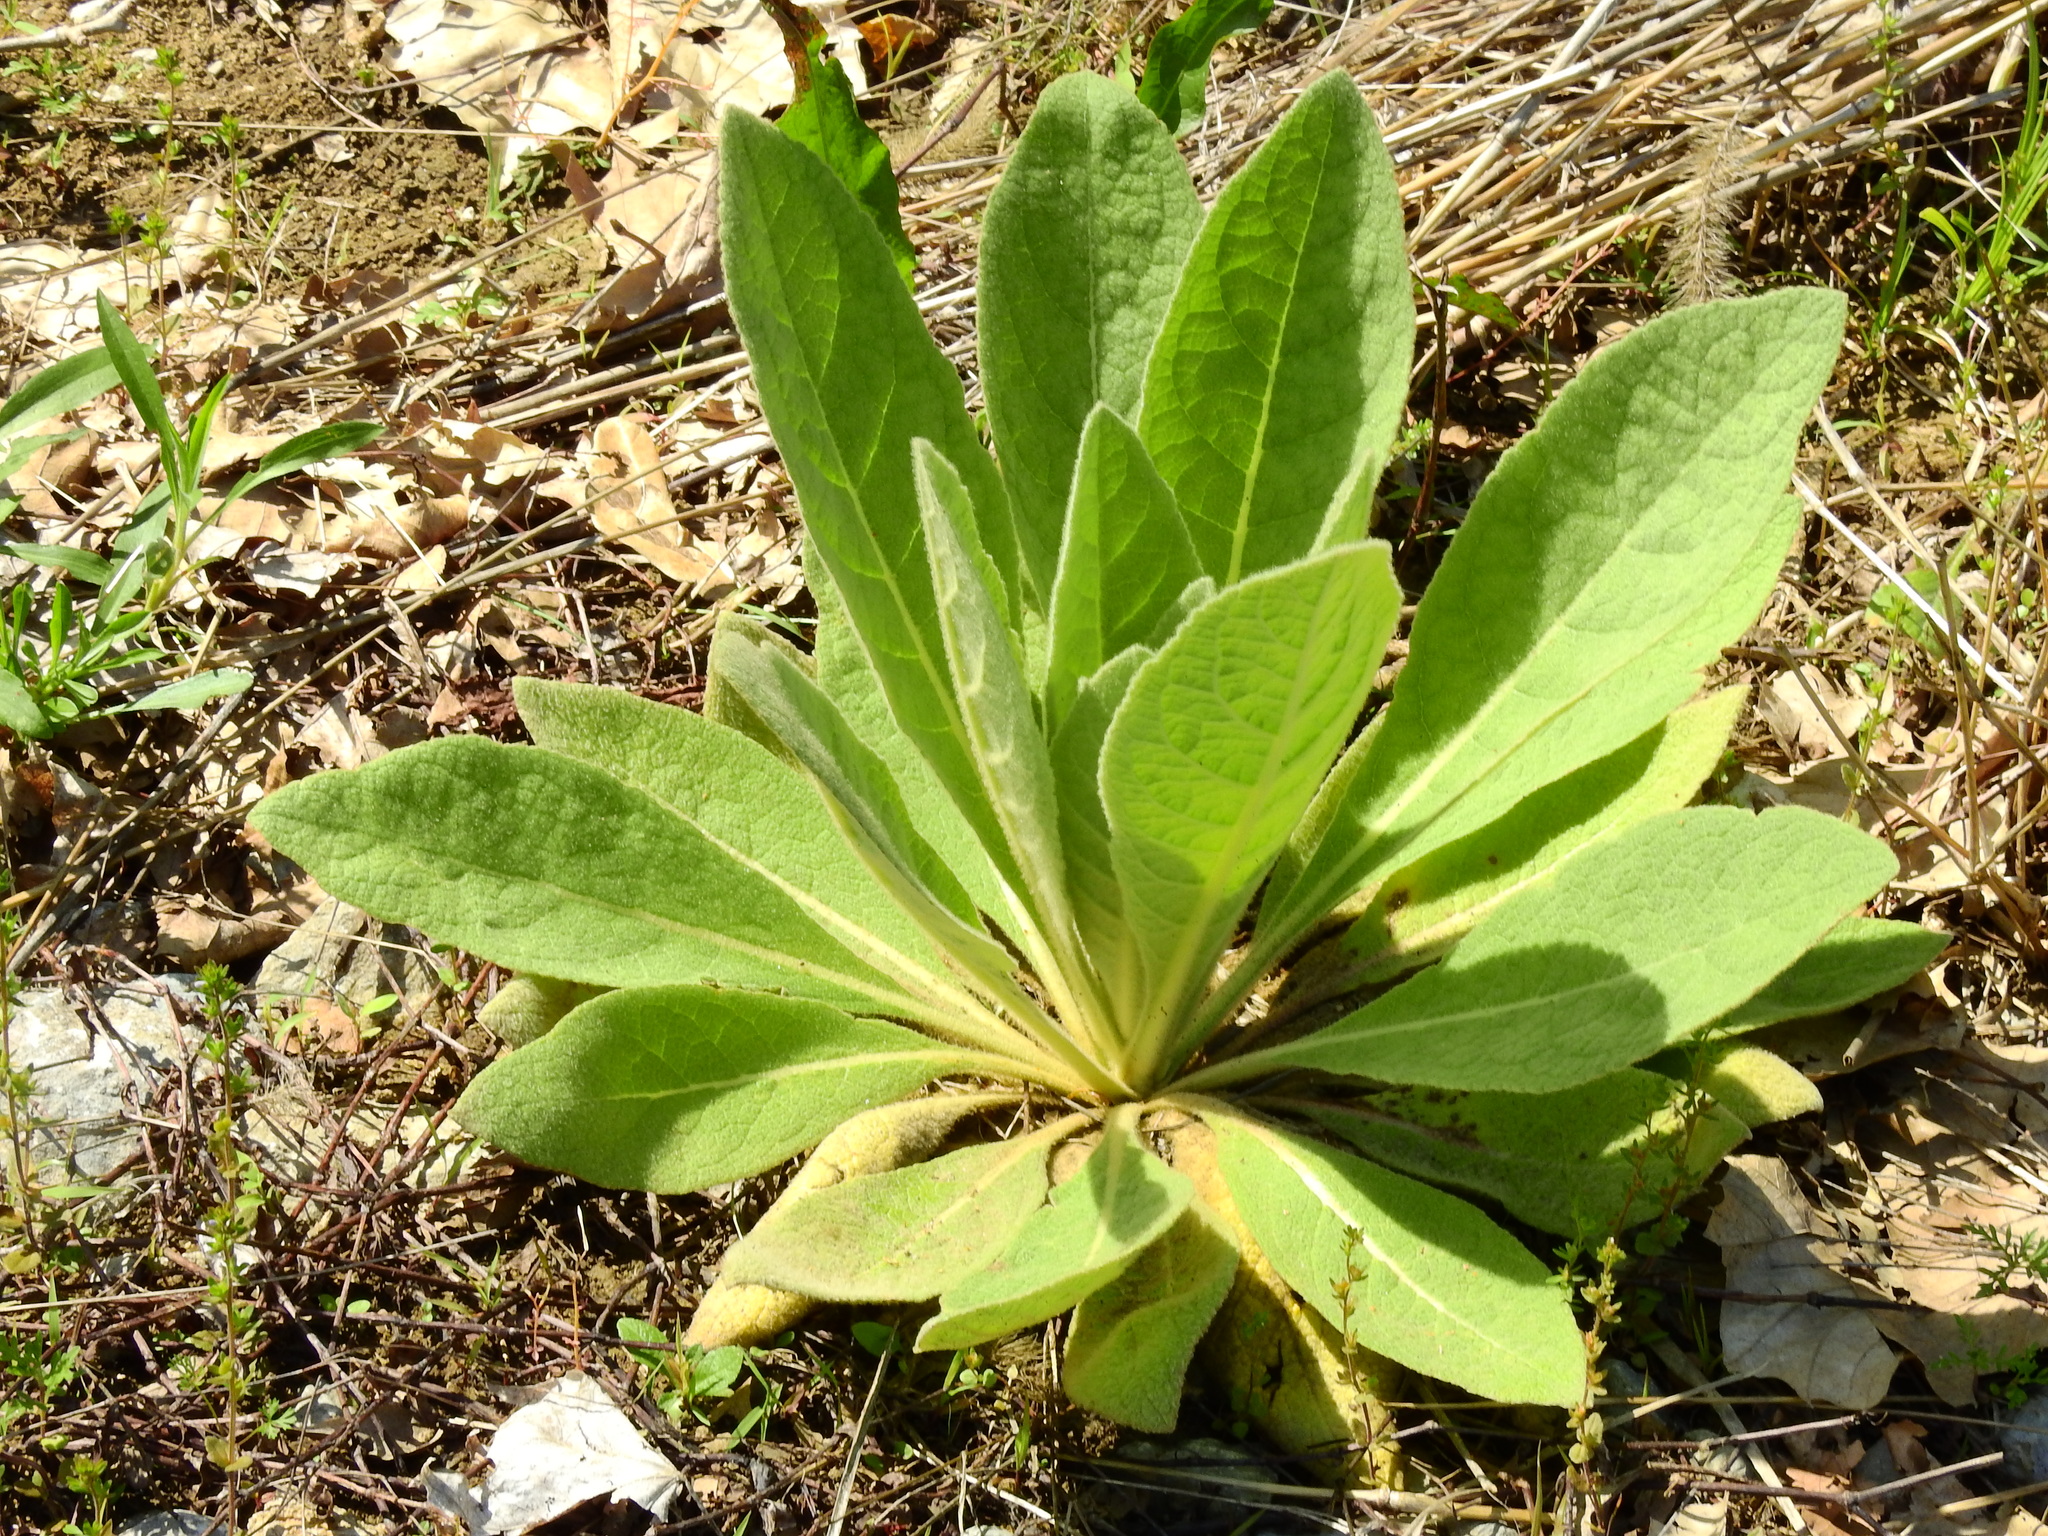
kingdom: Plantae
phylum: Tracheophyta
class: Magnoliopsida
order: Lamiales
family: Scrophulariaceae
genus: Verbascum
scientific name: Verbascum thapsus
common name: Common mullein
